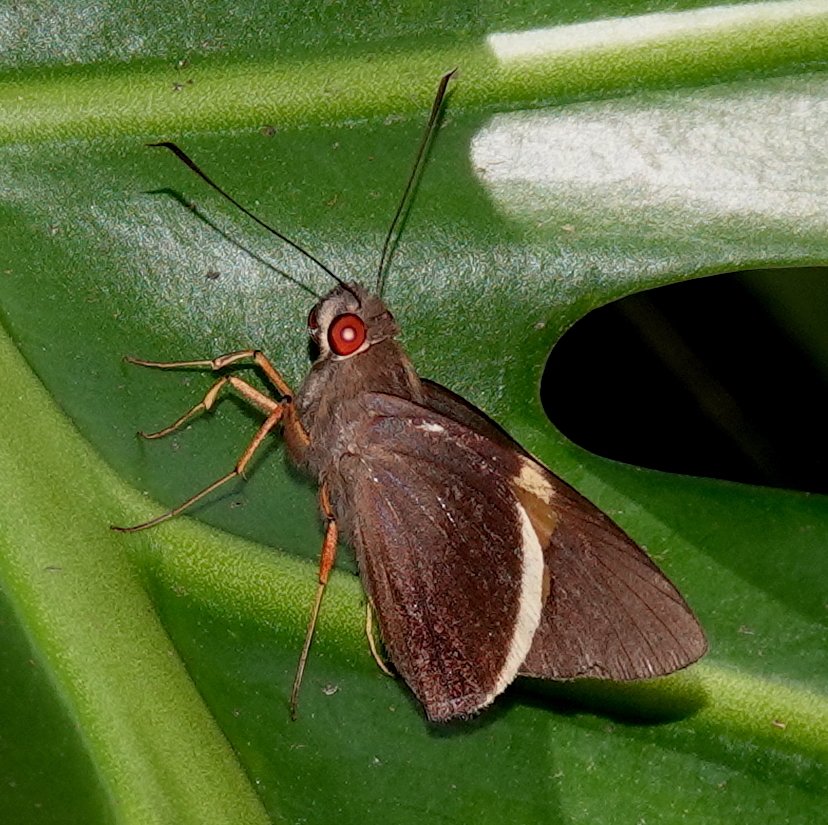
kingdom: Animalia
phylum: Arthropoda
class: Insecta
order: Lepidoptera
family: Hesperiidae
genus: Orses
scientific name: Orses cynisca
